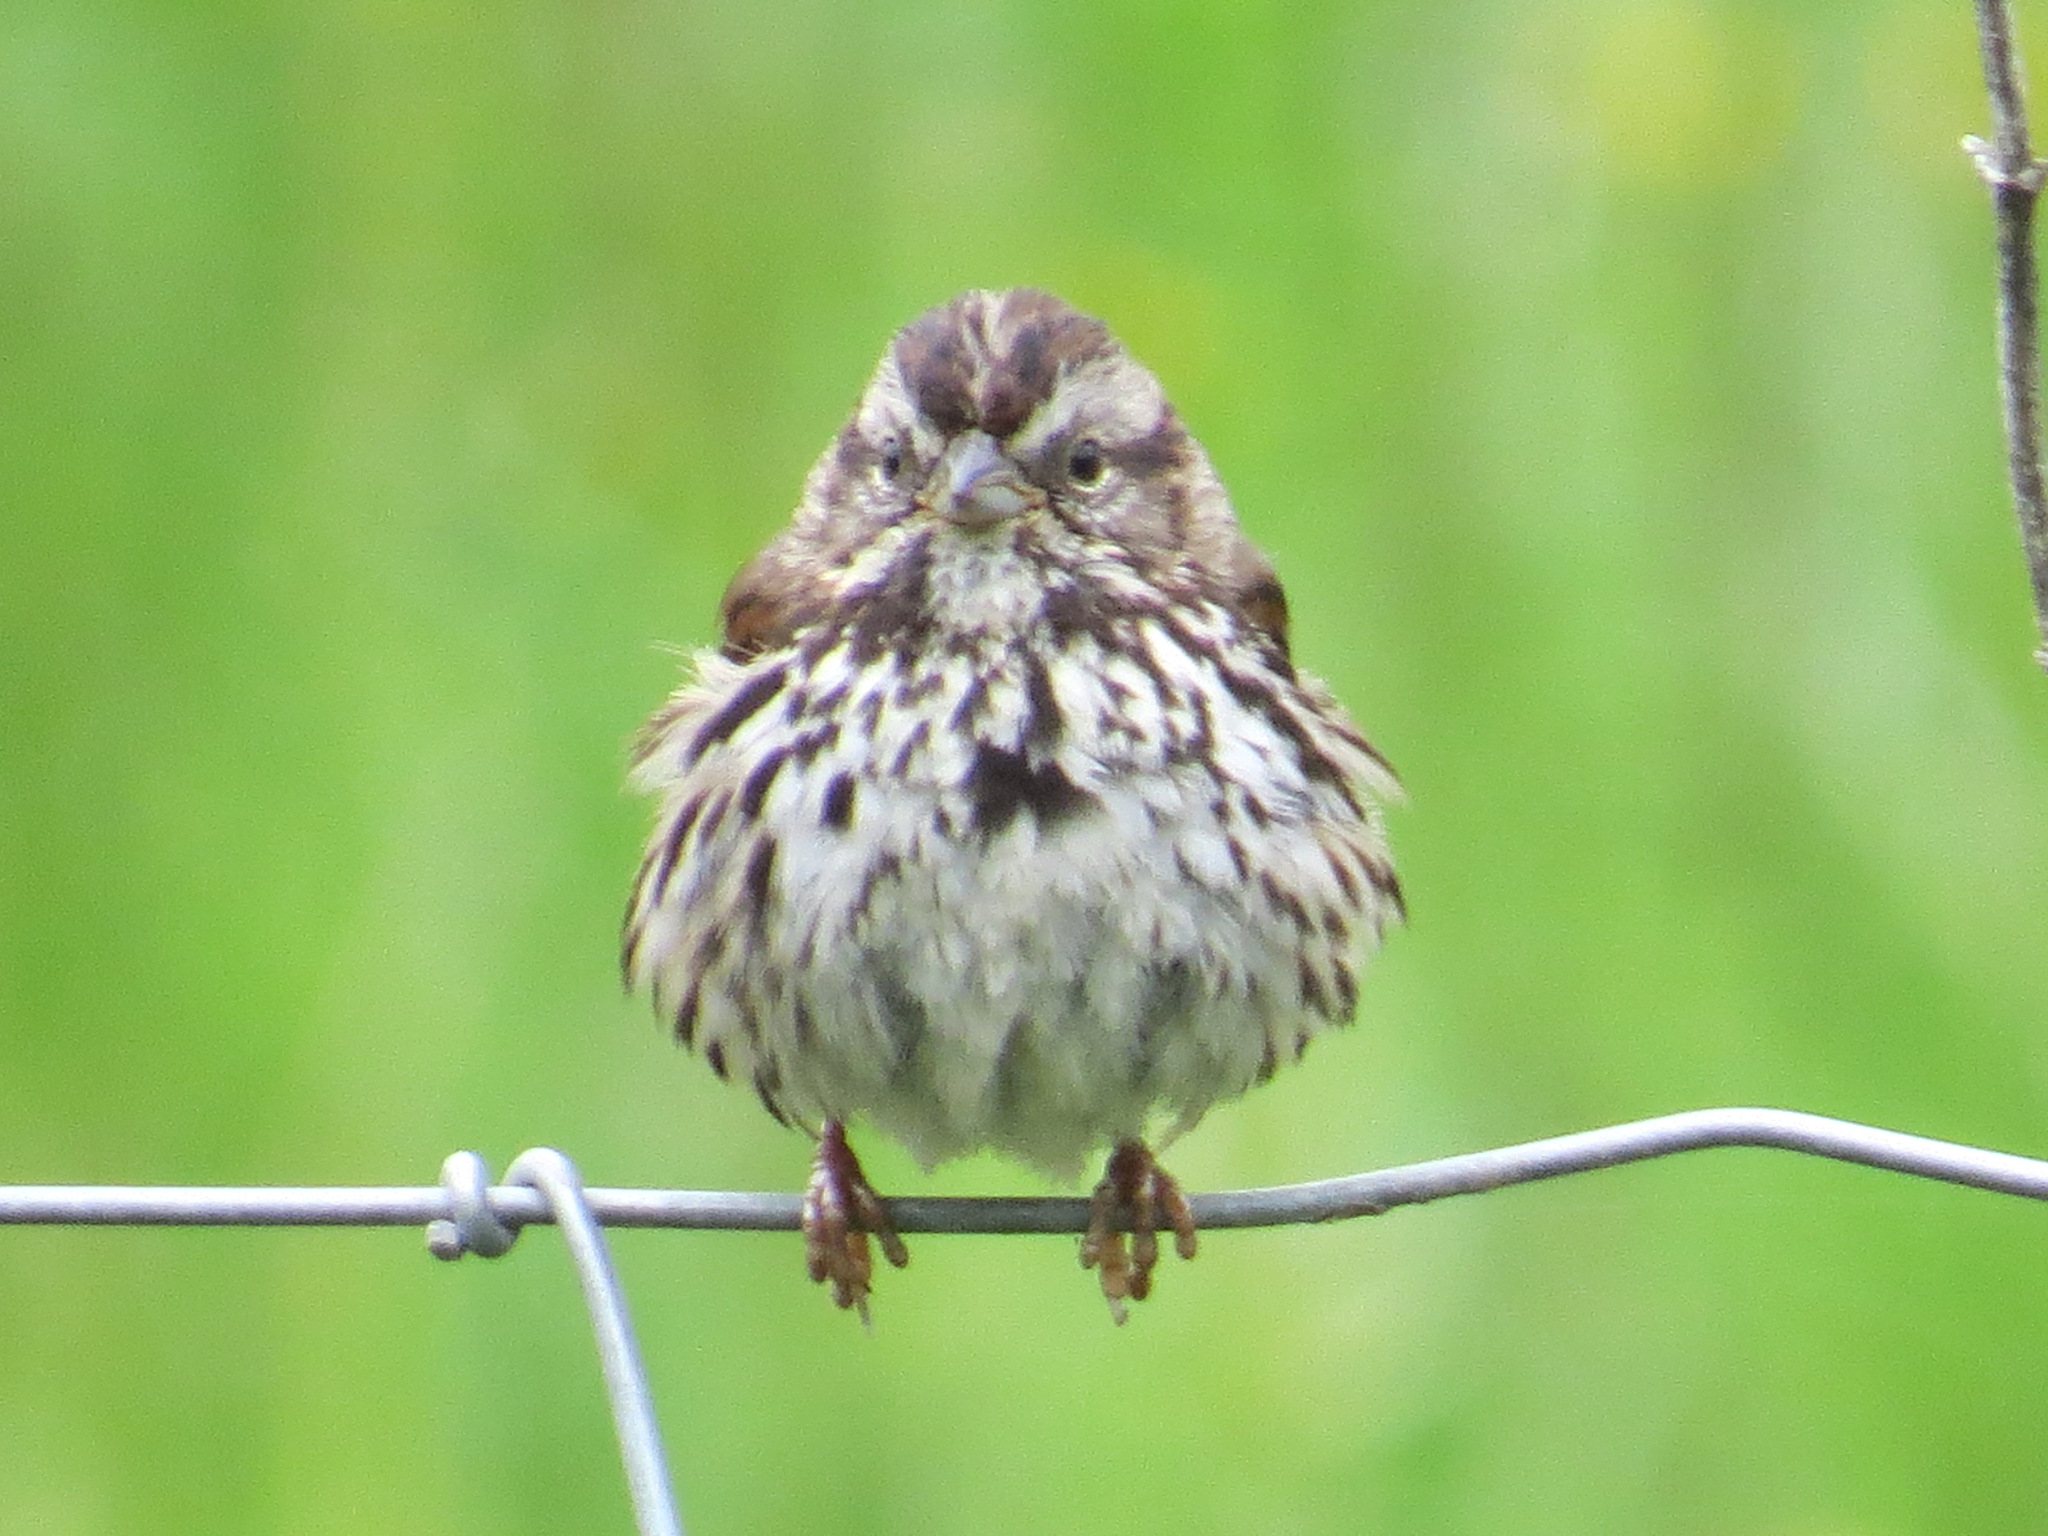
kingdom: Animalia
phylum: Chordata
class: Aves
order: Passeriformes
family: Passerellidae
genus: Melospiza
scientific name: Melospiza melodia
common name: Song sparrow
